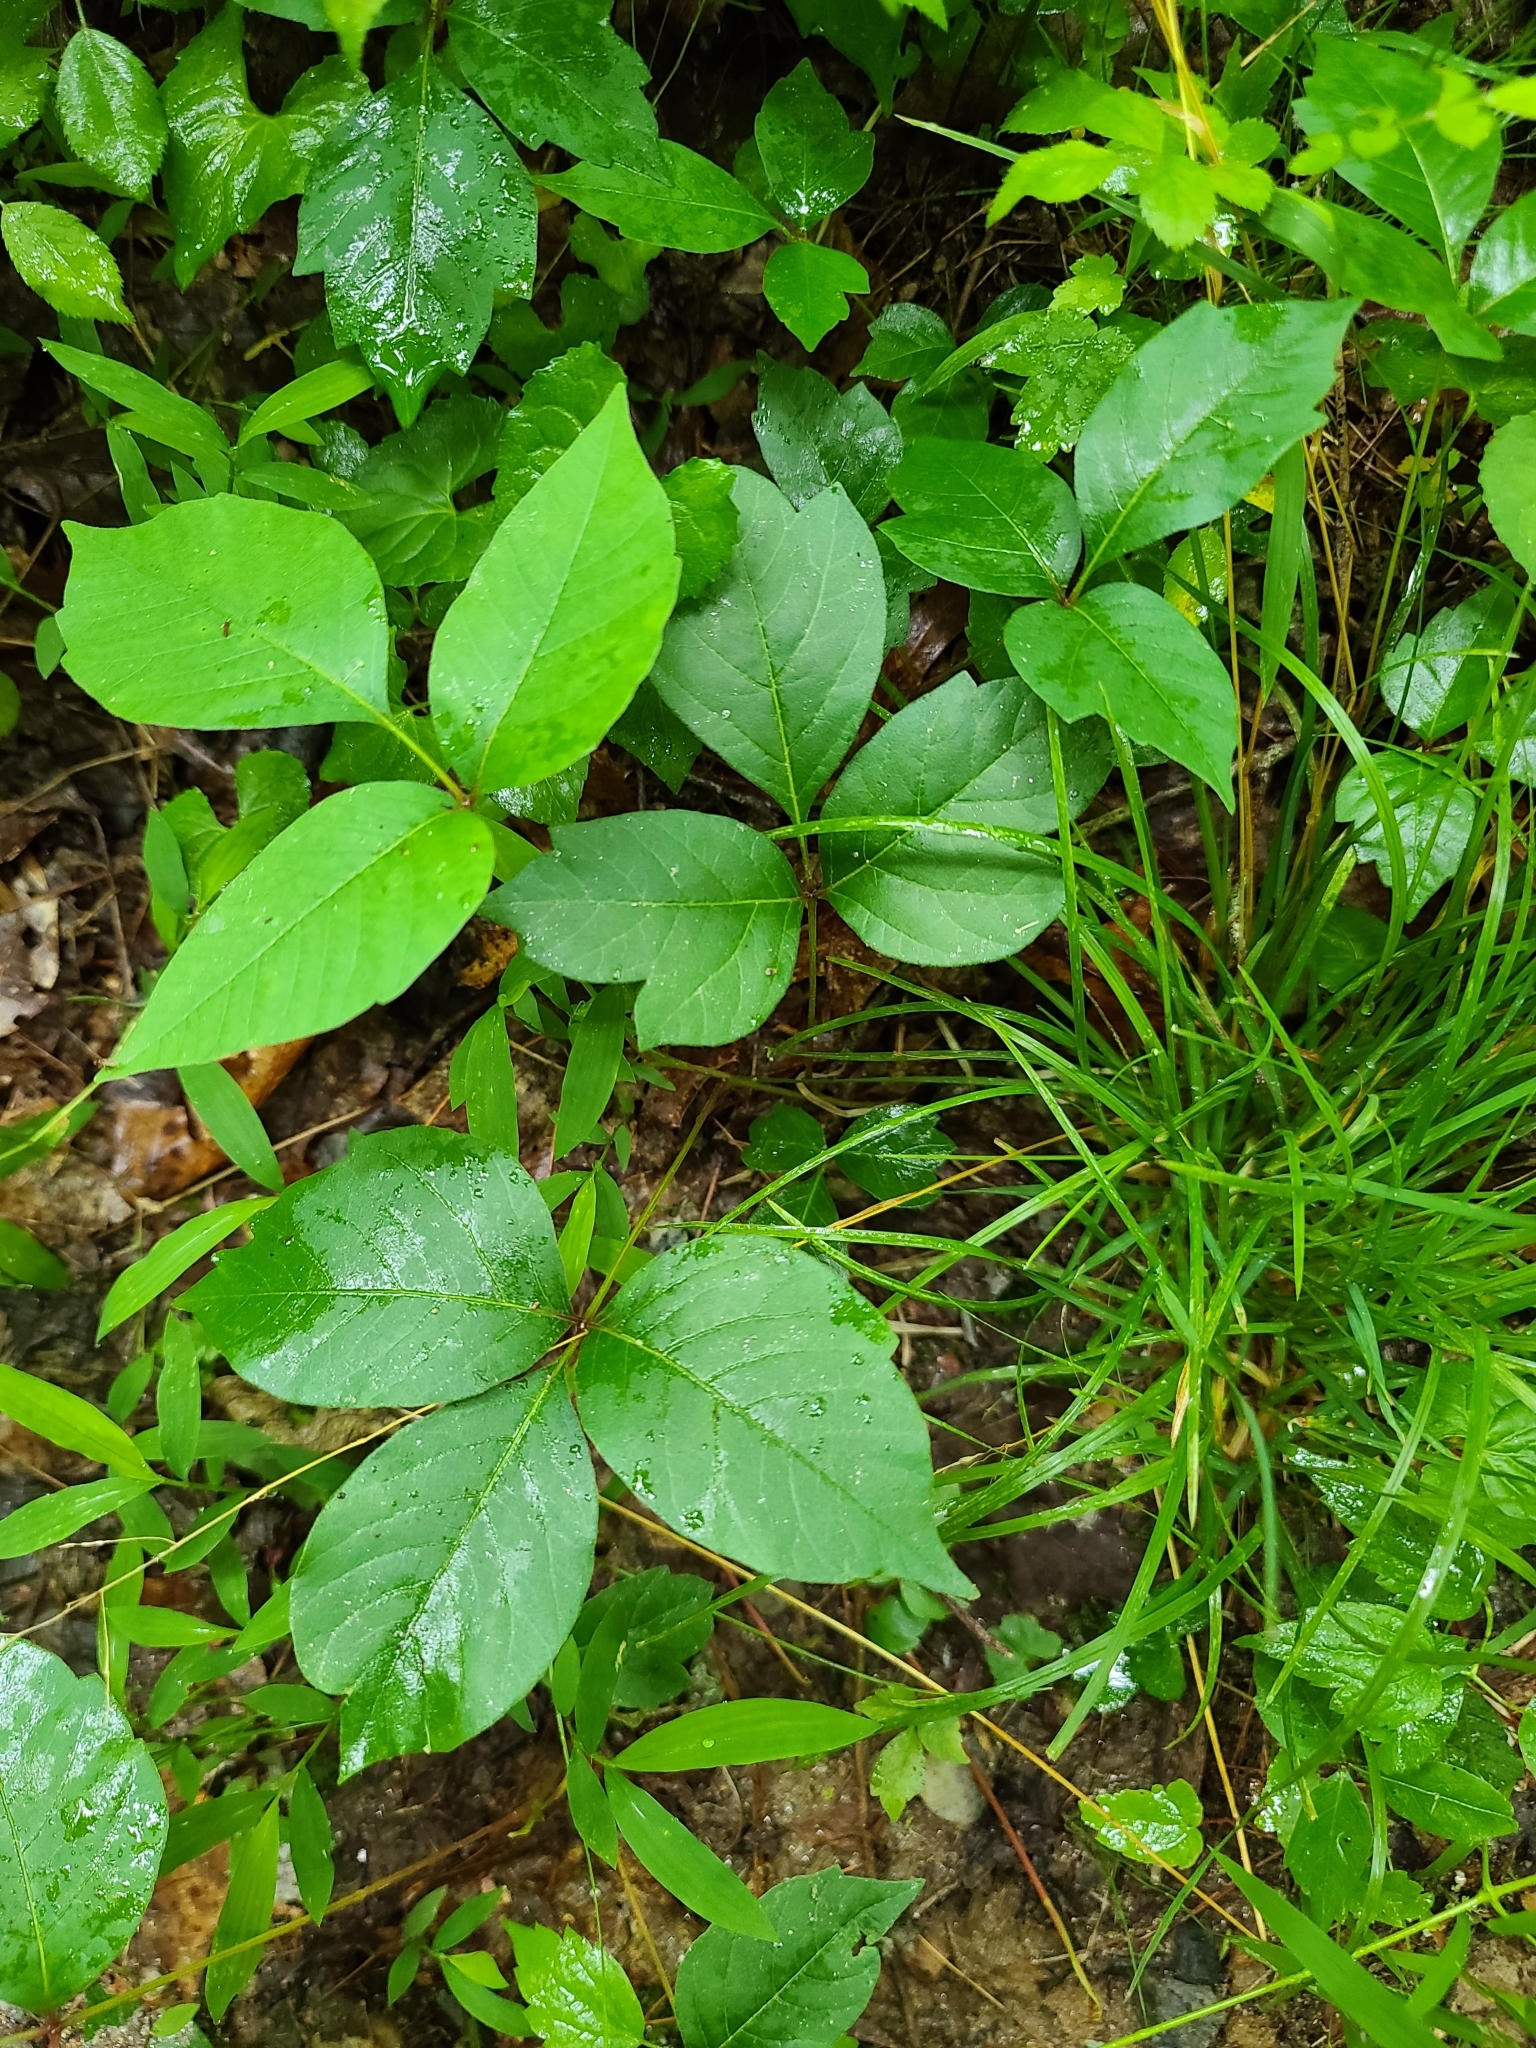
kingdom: Plantae
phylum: Tracheophyta
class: Magnoliopsida
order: Sapindales
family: Anacardiaceae
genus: Toxicodendron
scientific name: Toxicodendron radicans
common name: Poison ivy
